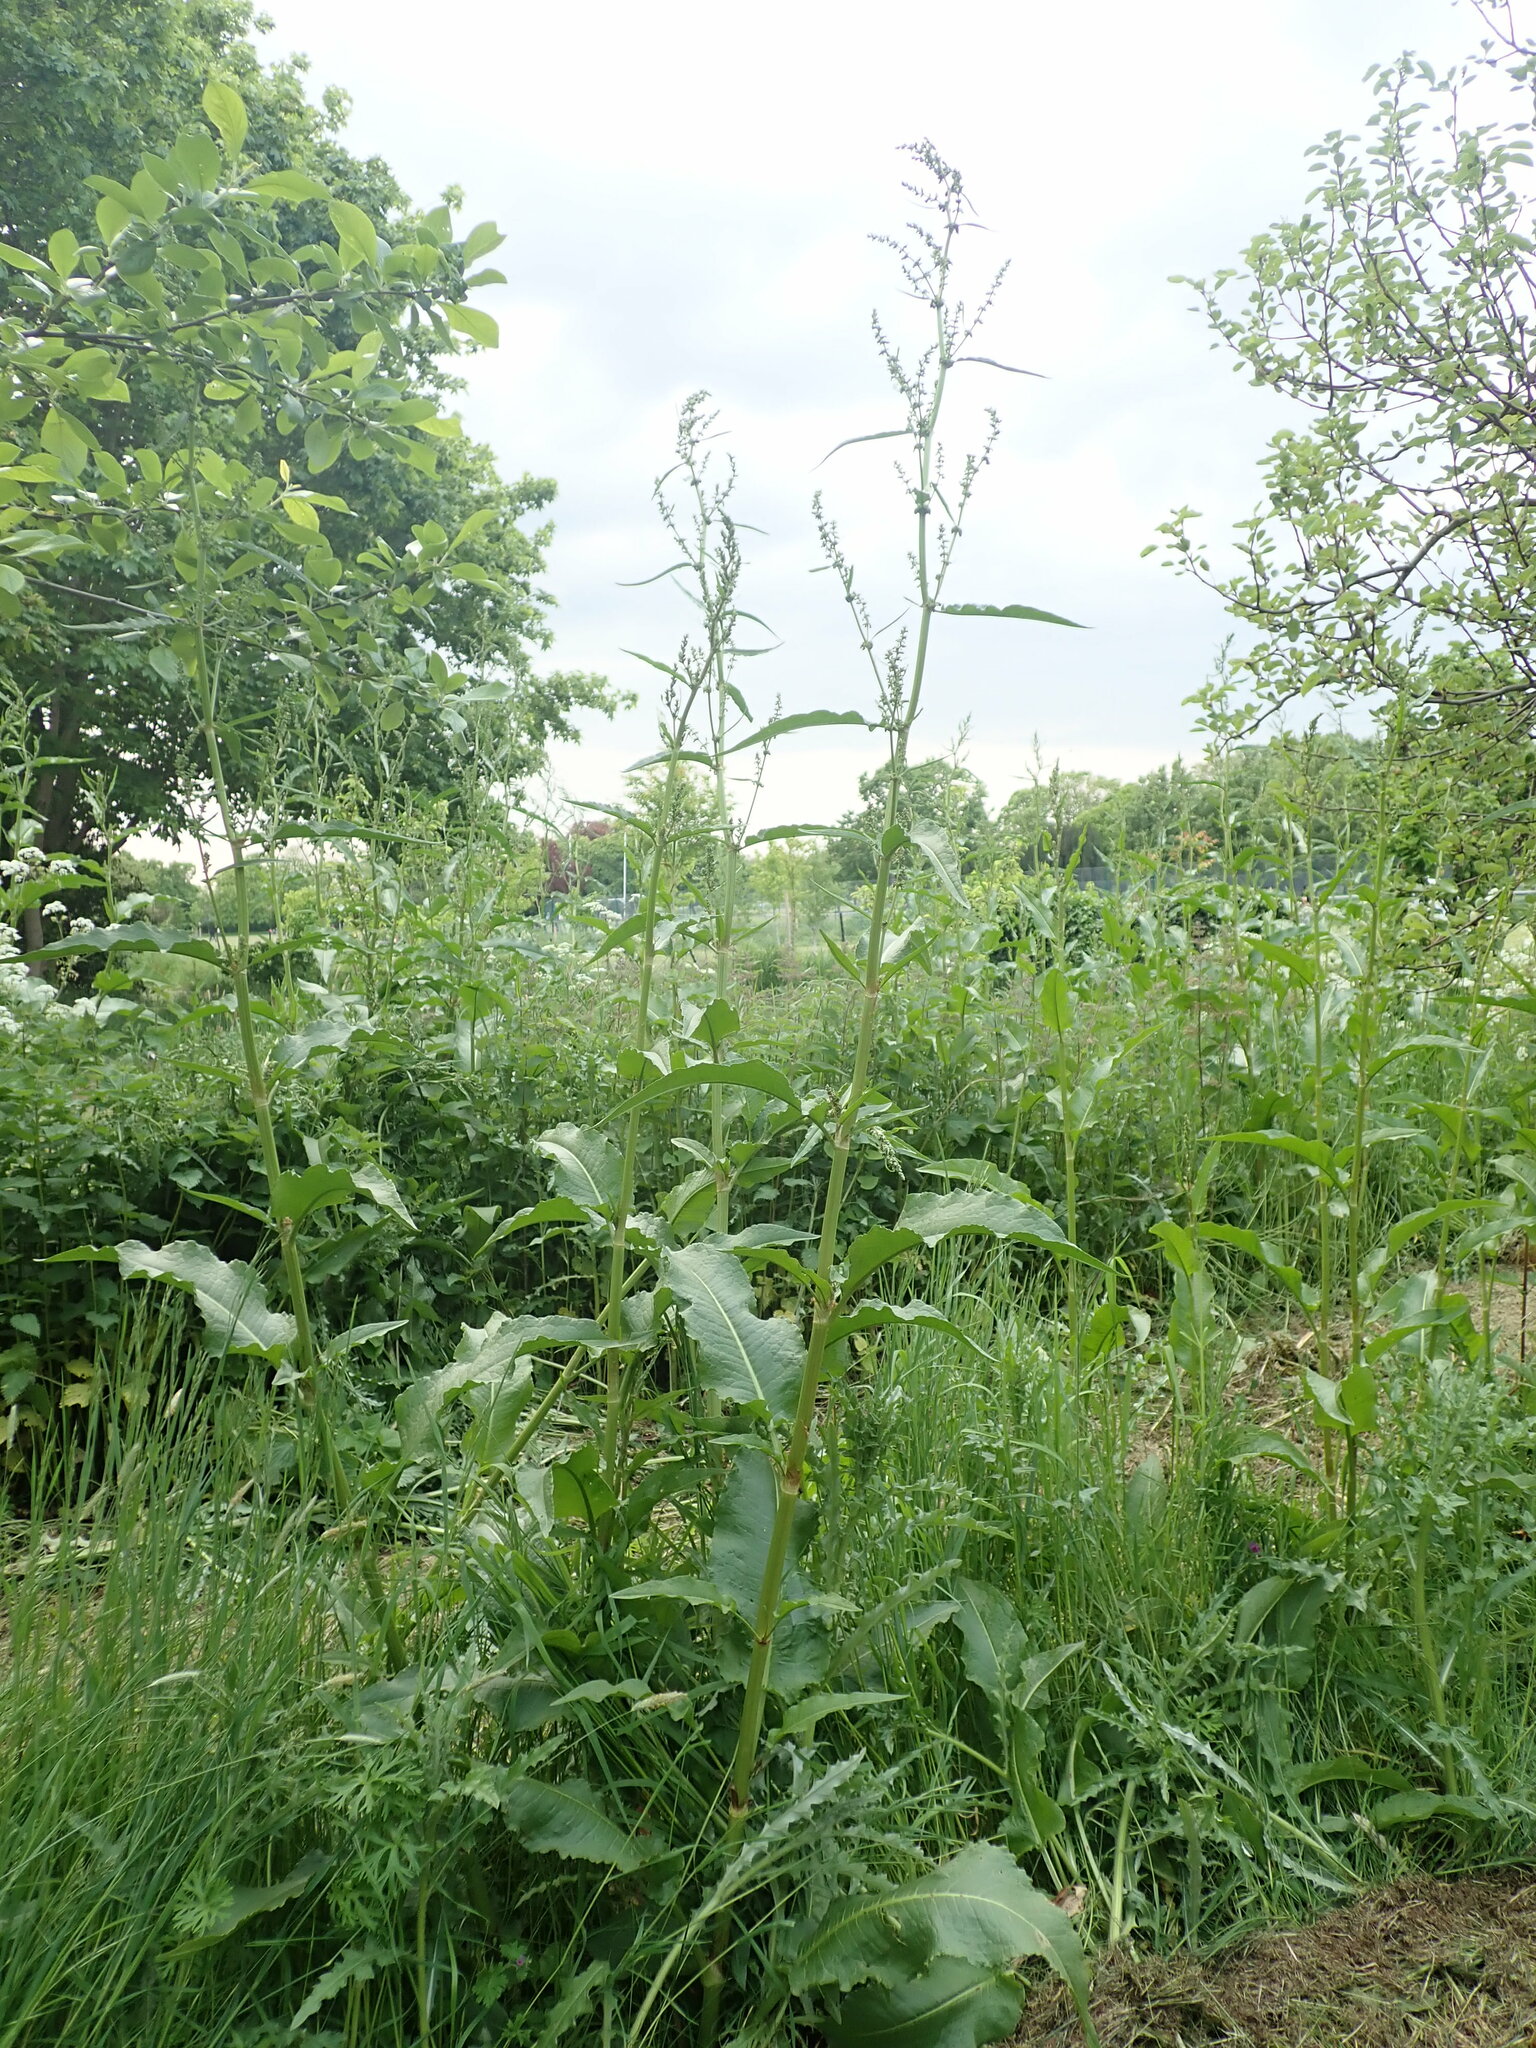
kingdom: Plantae
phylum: Tracheophyta
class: Magnoliopsida
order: Caryophyllales
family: Polygonaceae
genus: Rumex
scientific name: Rumex cristatus
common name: Greek dock
